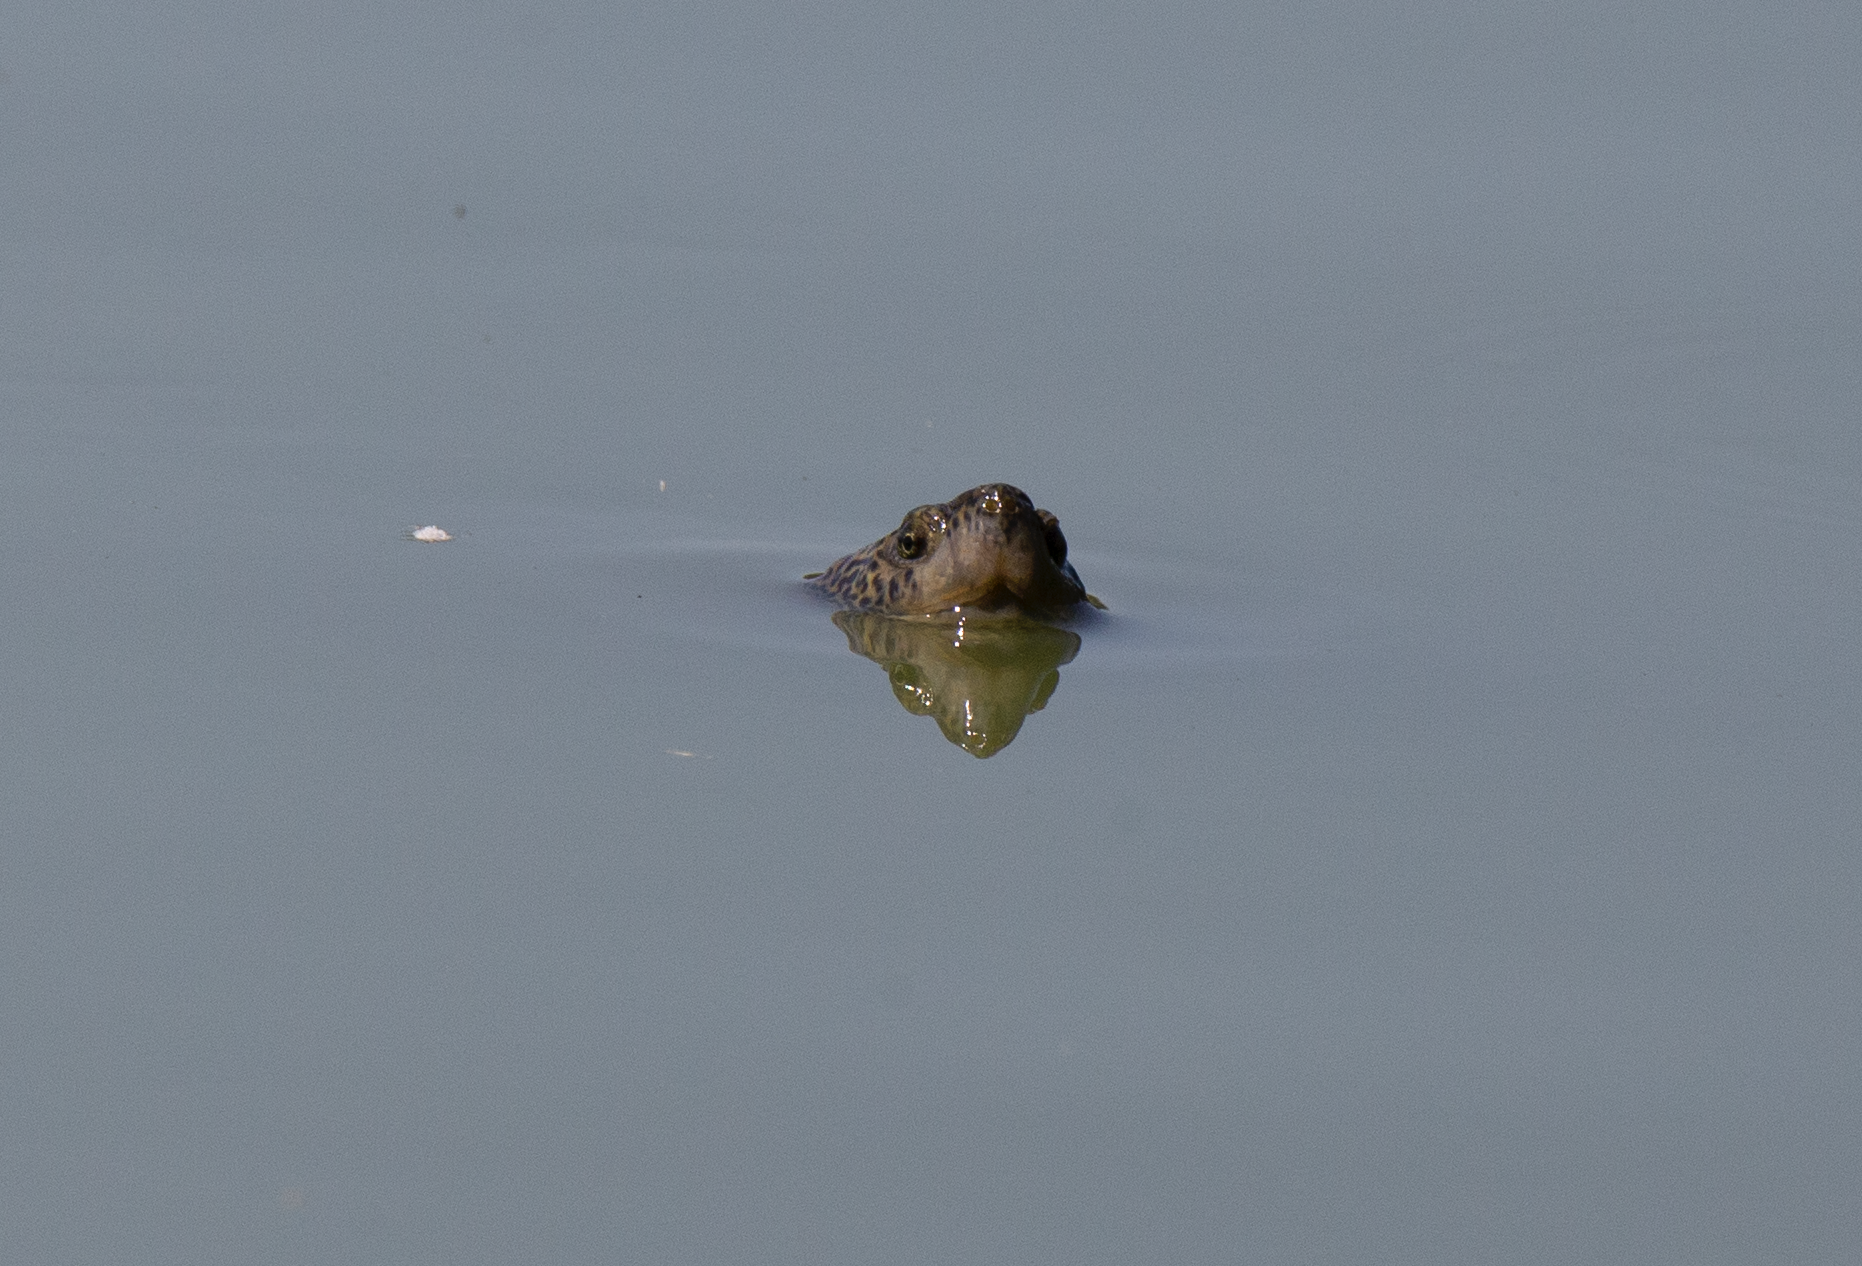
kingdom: Animalia
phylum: Chordata
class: Testudines
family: Emydidae
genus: Trachemys
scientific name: Trachemys scripta
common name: Slider
